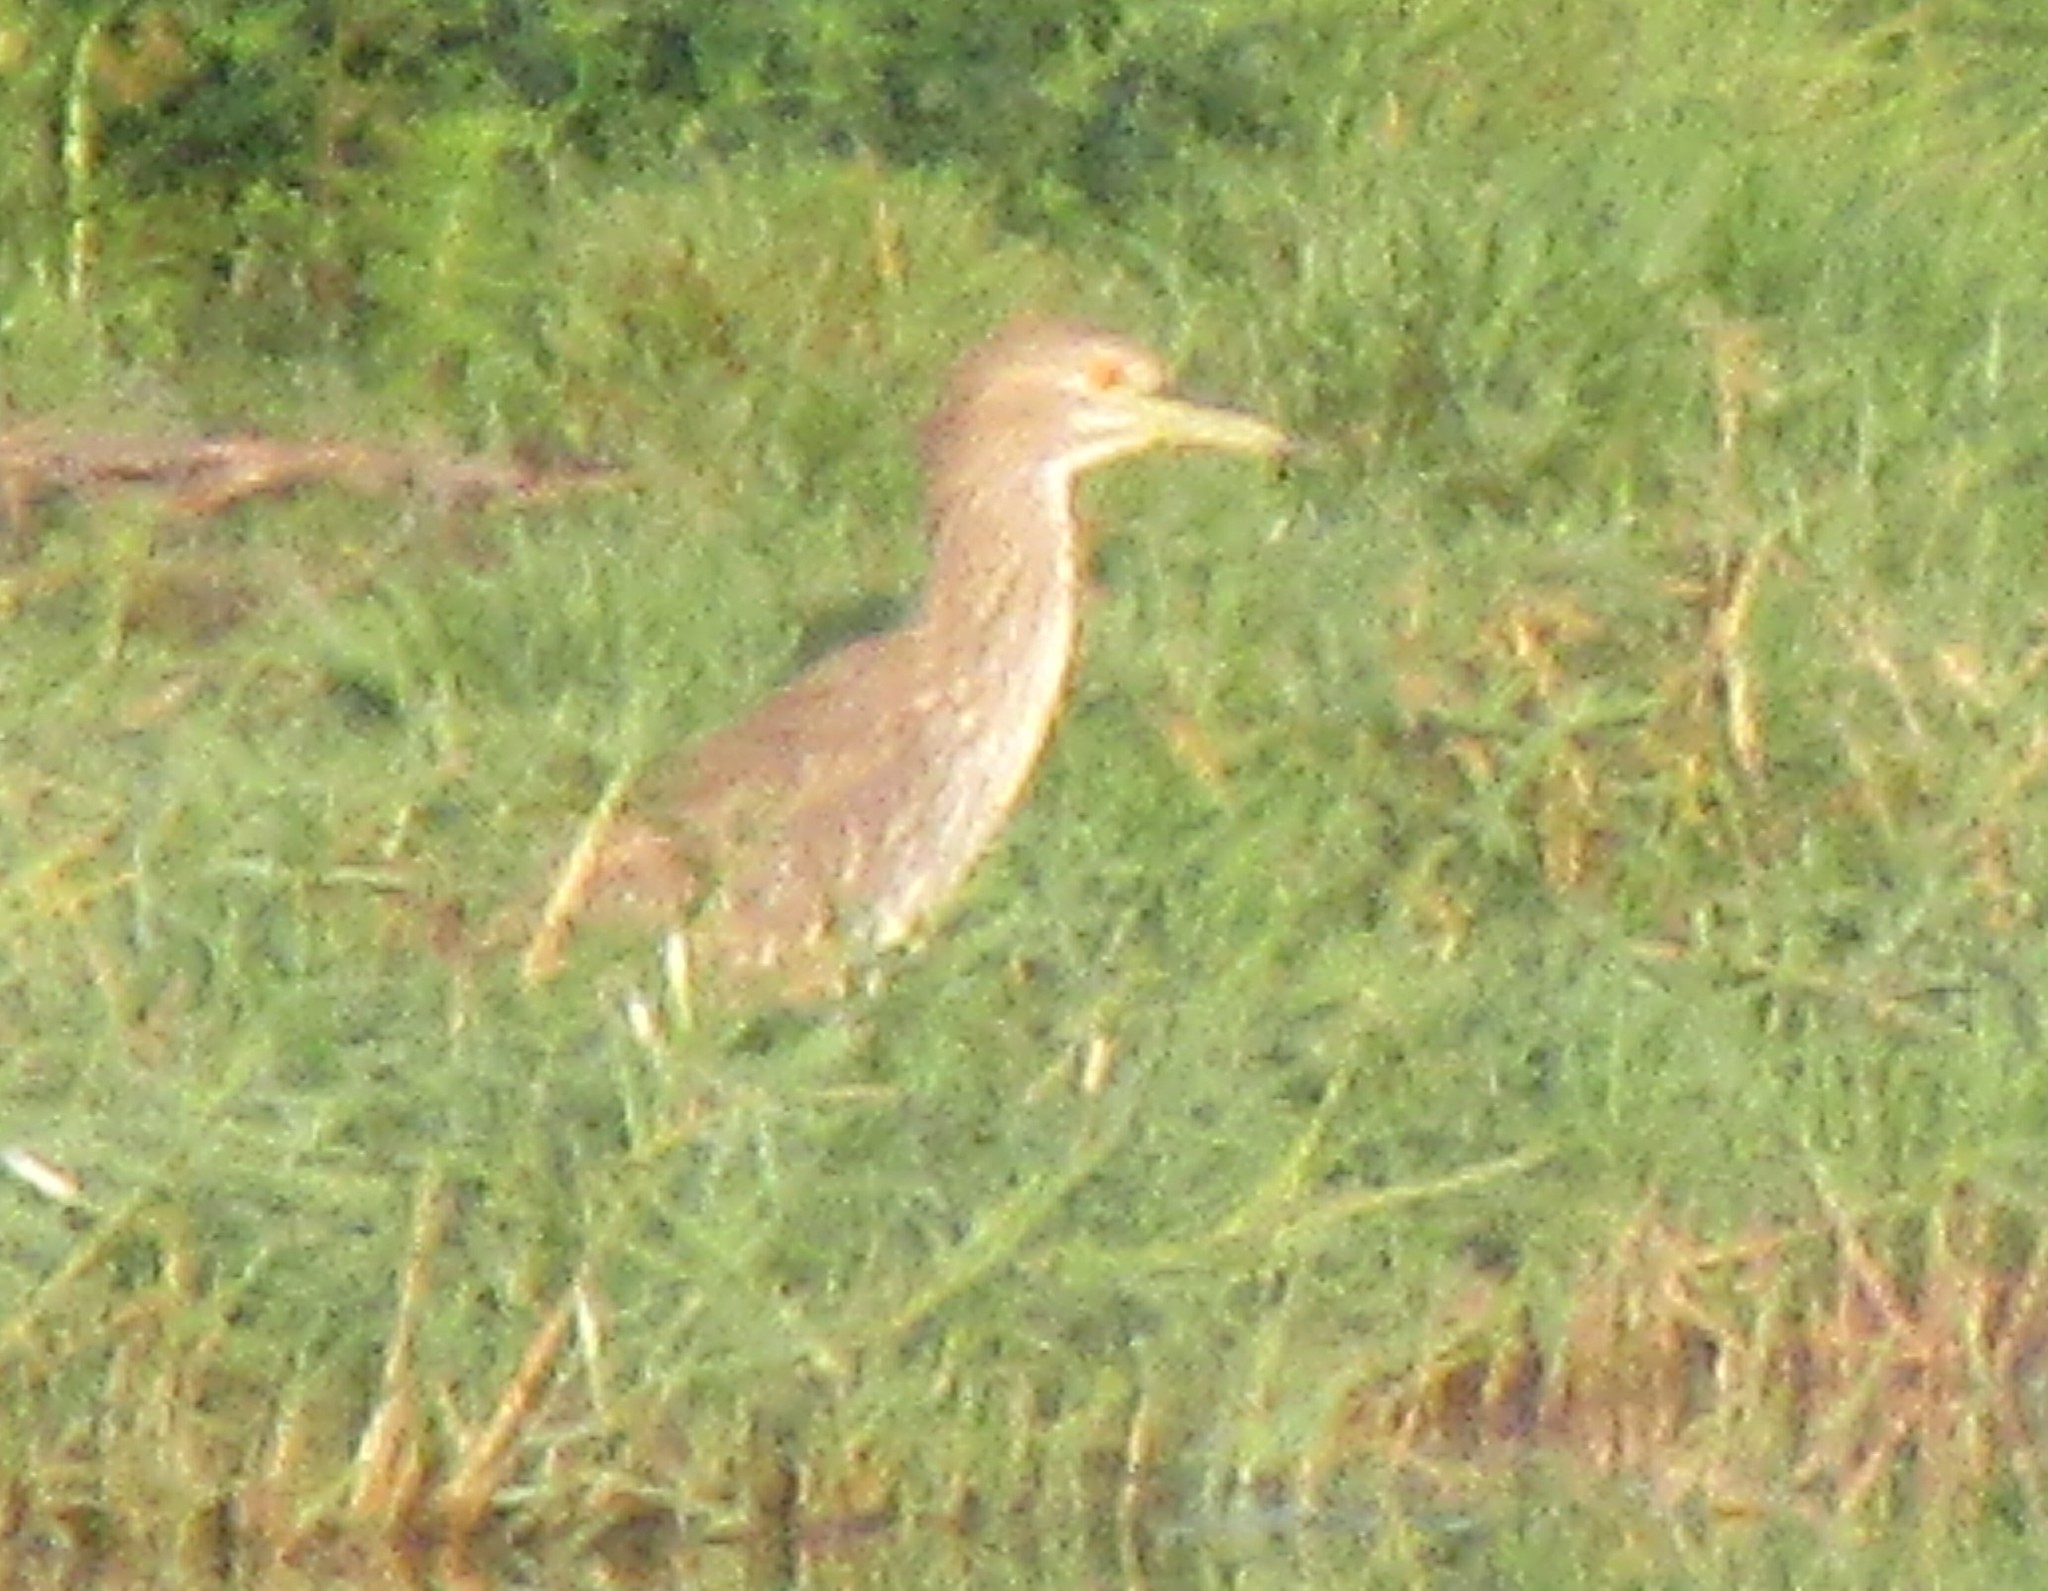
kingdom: Animalia
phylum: Chordata
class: Aves
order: Pelecaniformes
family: Ardeidae
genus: Nycticorax
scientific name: Nycticorax nycticorax
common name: Black-crowned night heron
